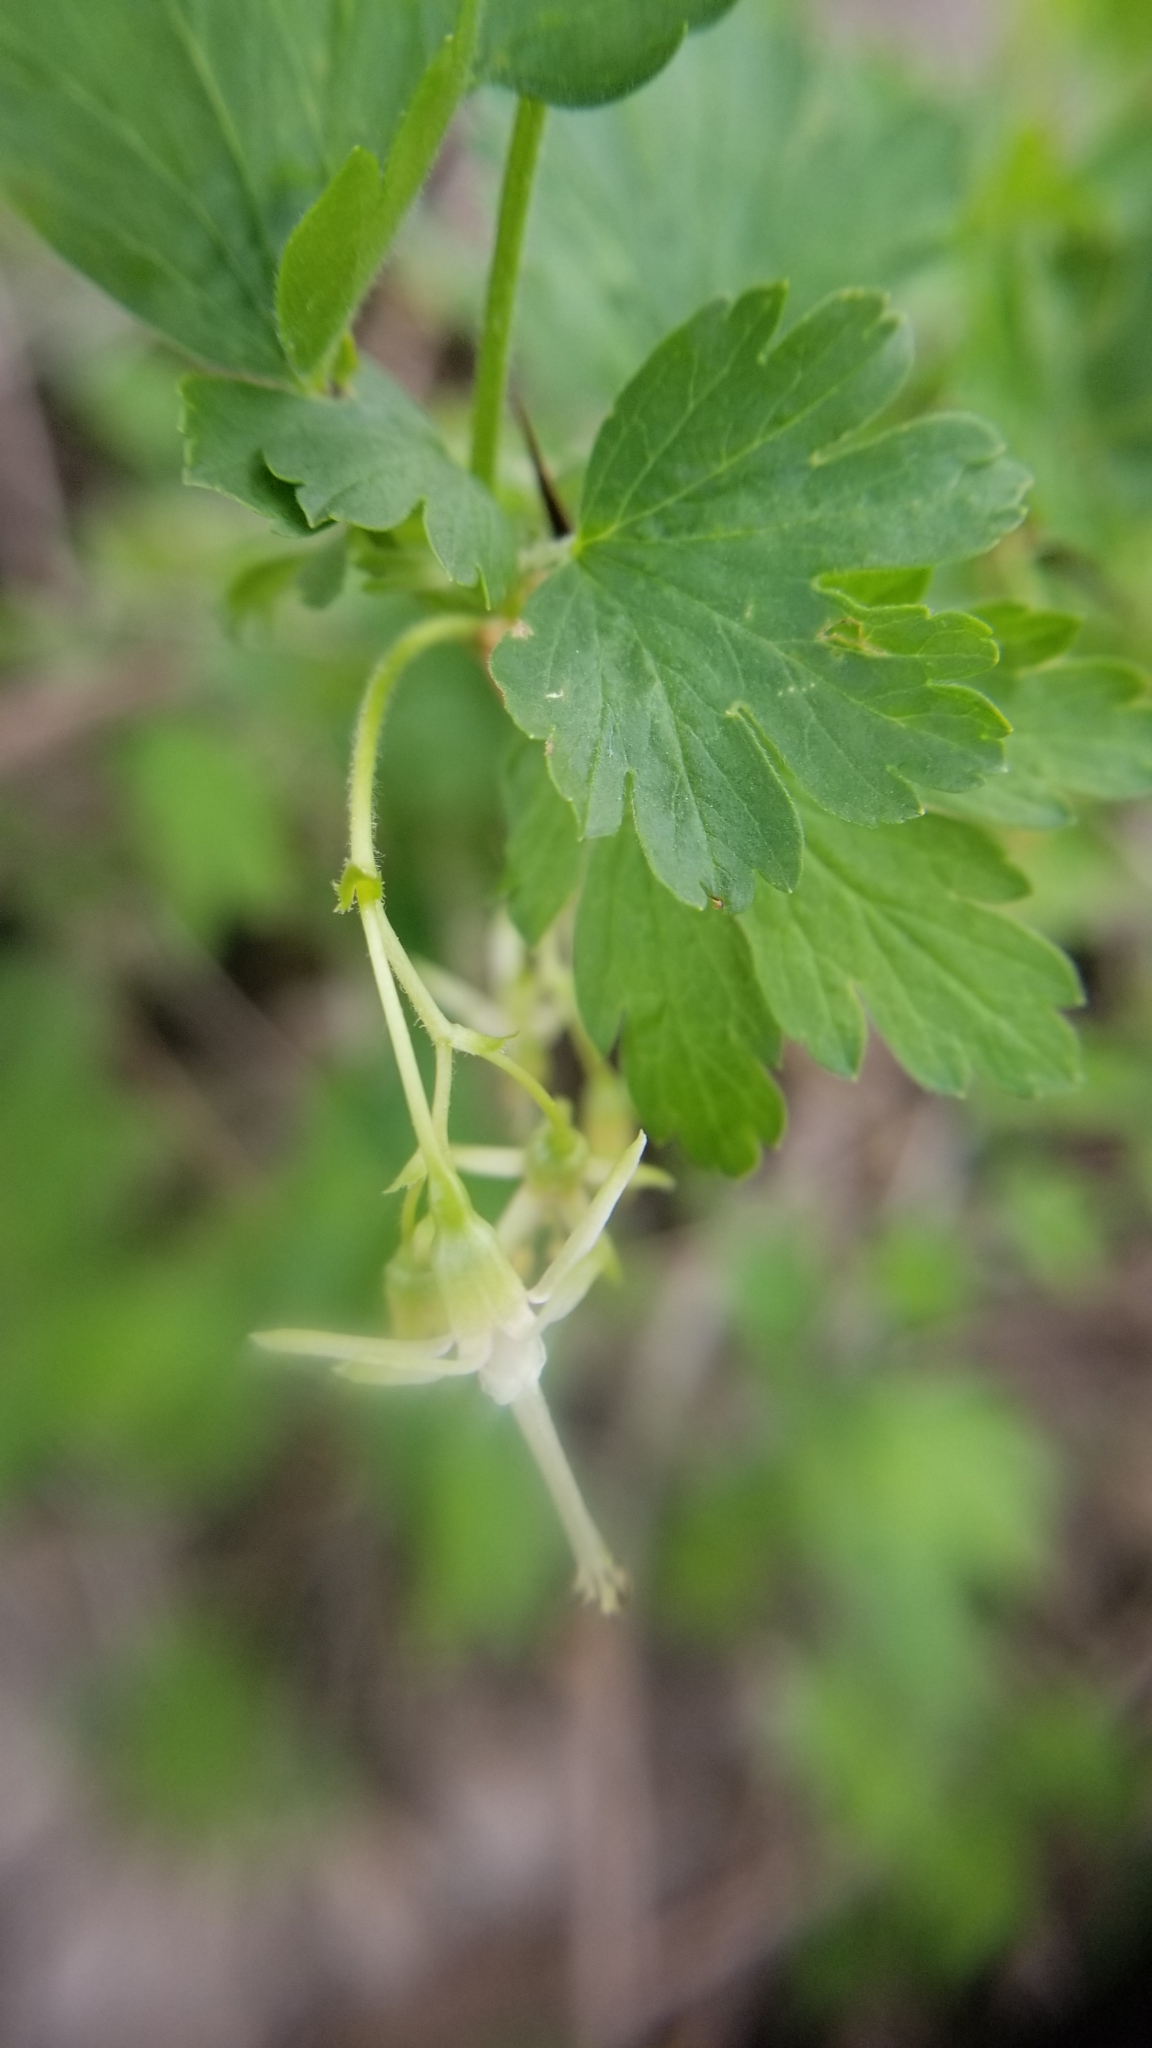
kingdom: Plantae
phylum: Tracheophyta
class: Magnoliopsida
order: Saxifragales
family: Grossulariaceae
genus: Ribes
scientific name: Ribes missouriense
